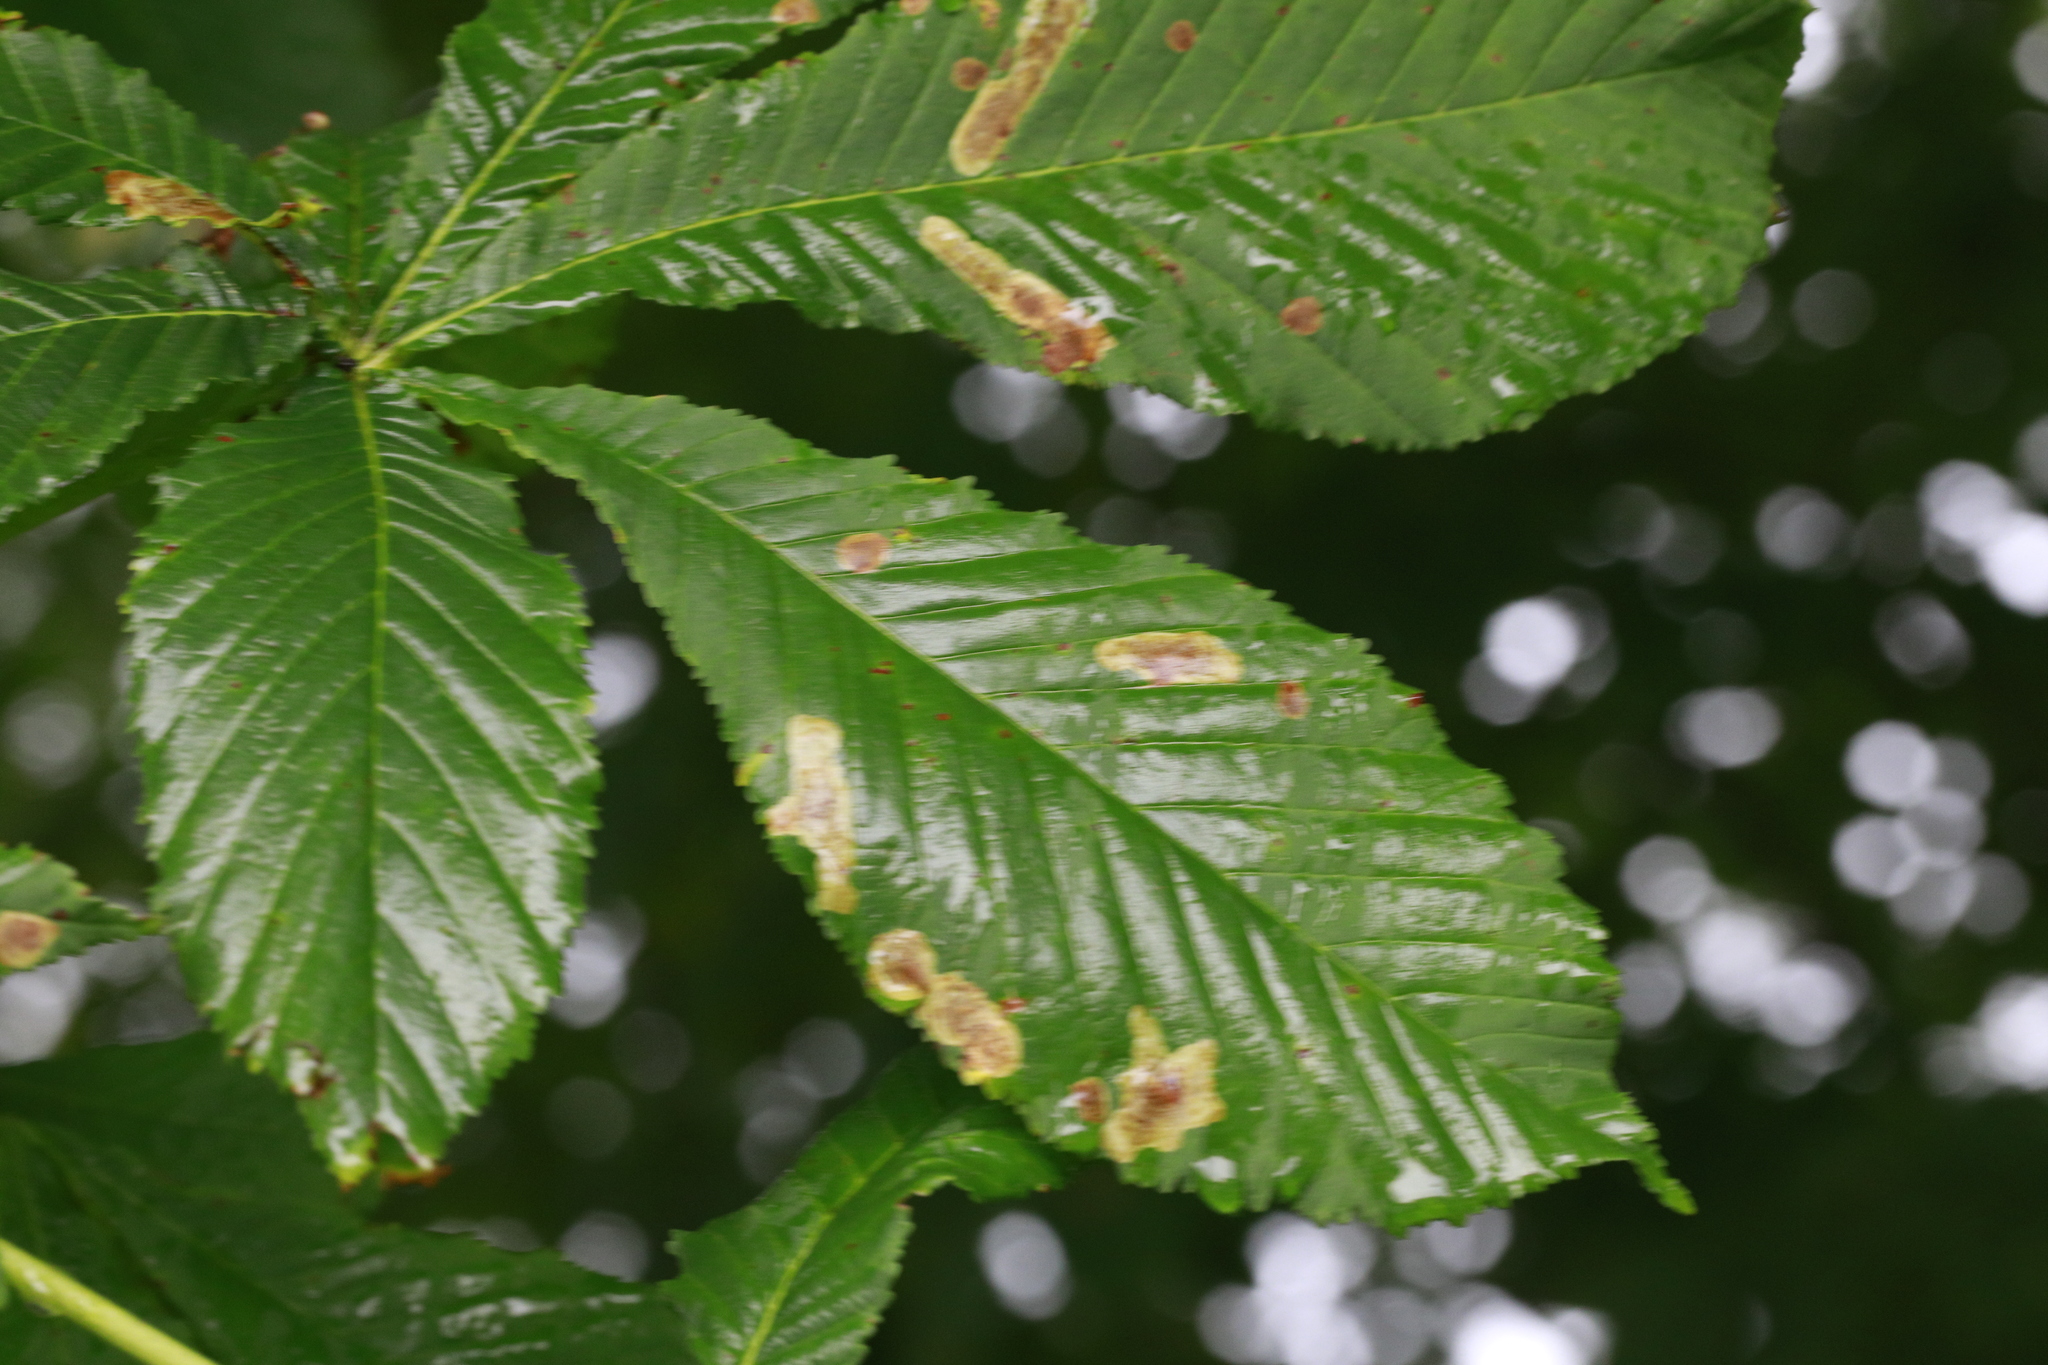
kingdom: Animalia
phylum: Arthropoda
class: Insecta
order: Lepidoptera
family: Gracillariidae
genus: Cameraria
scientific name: Cameraria ohridella
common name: Horse-chestnut leaf-miner
